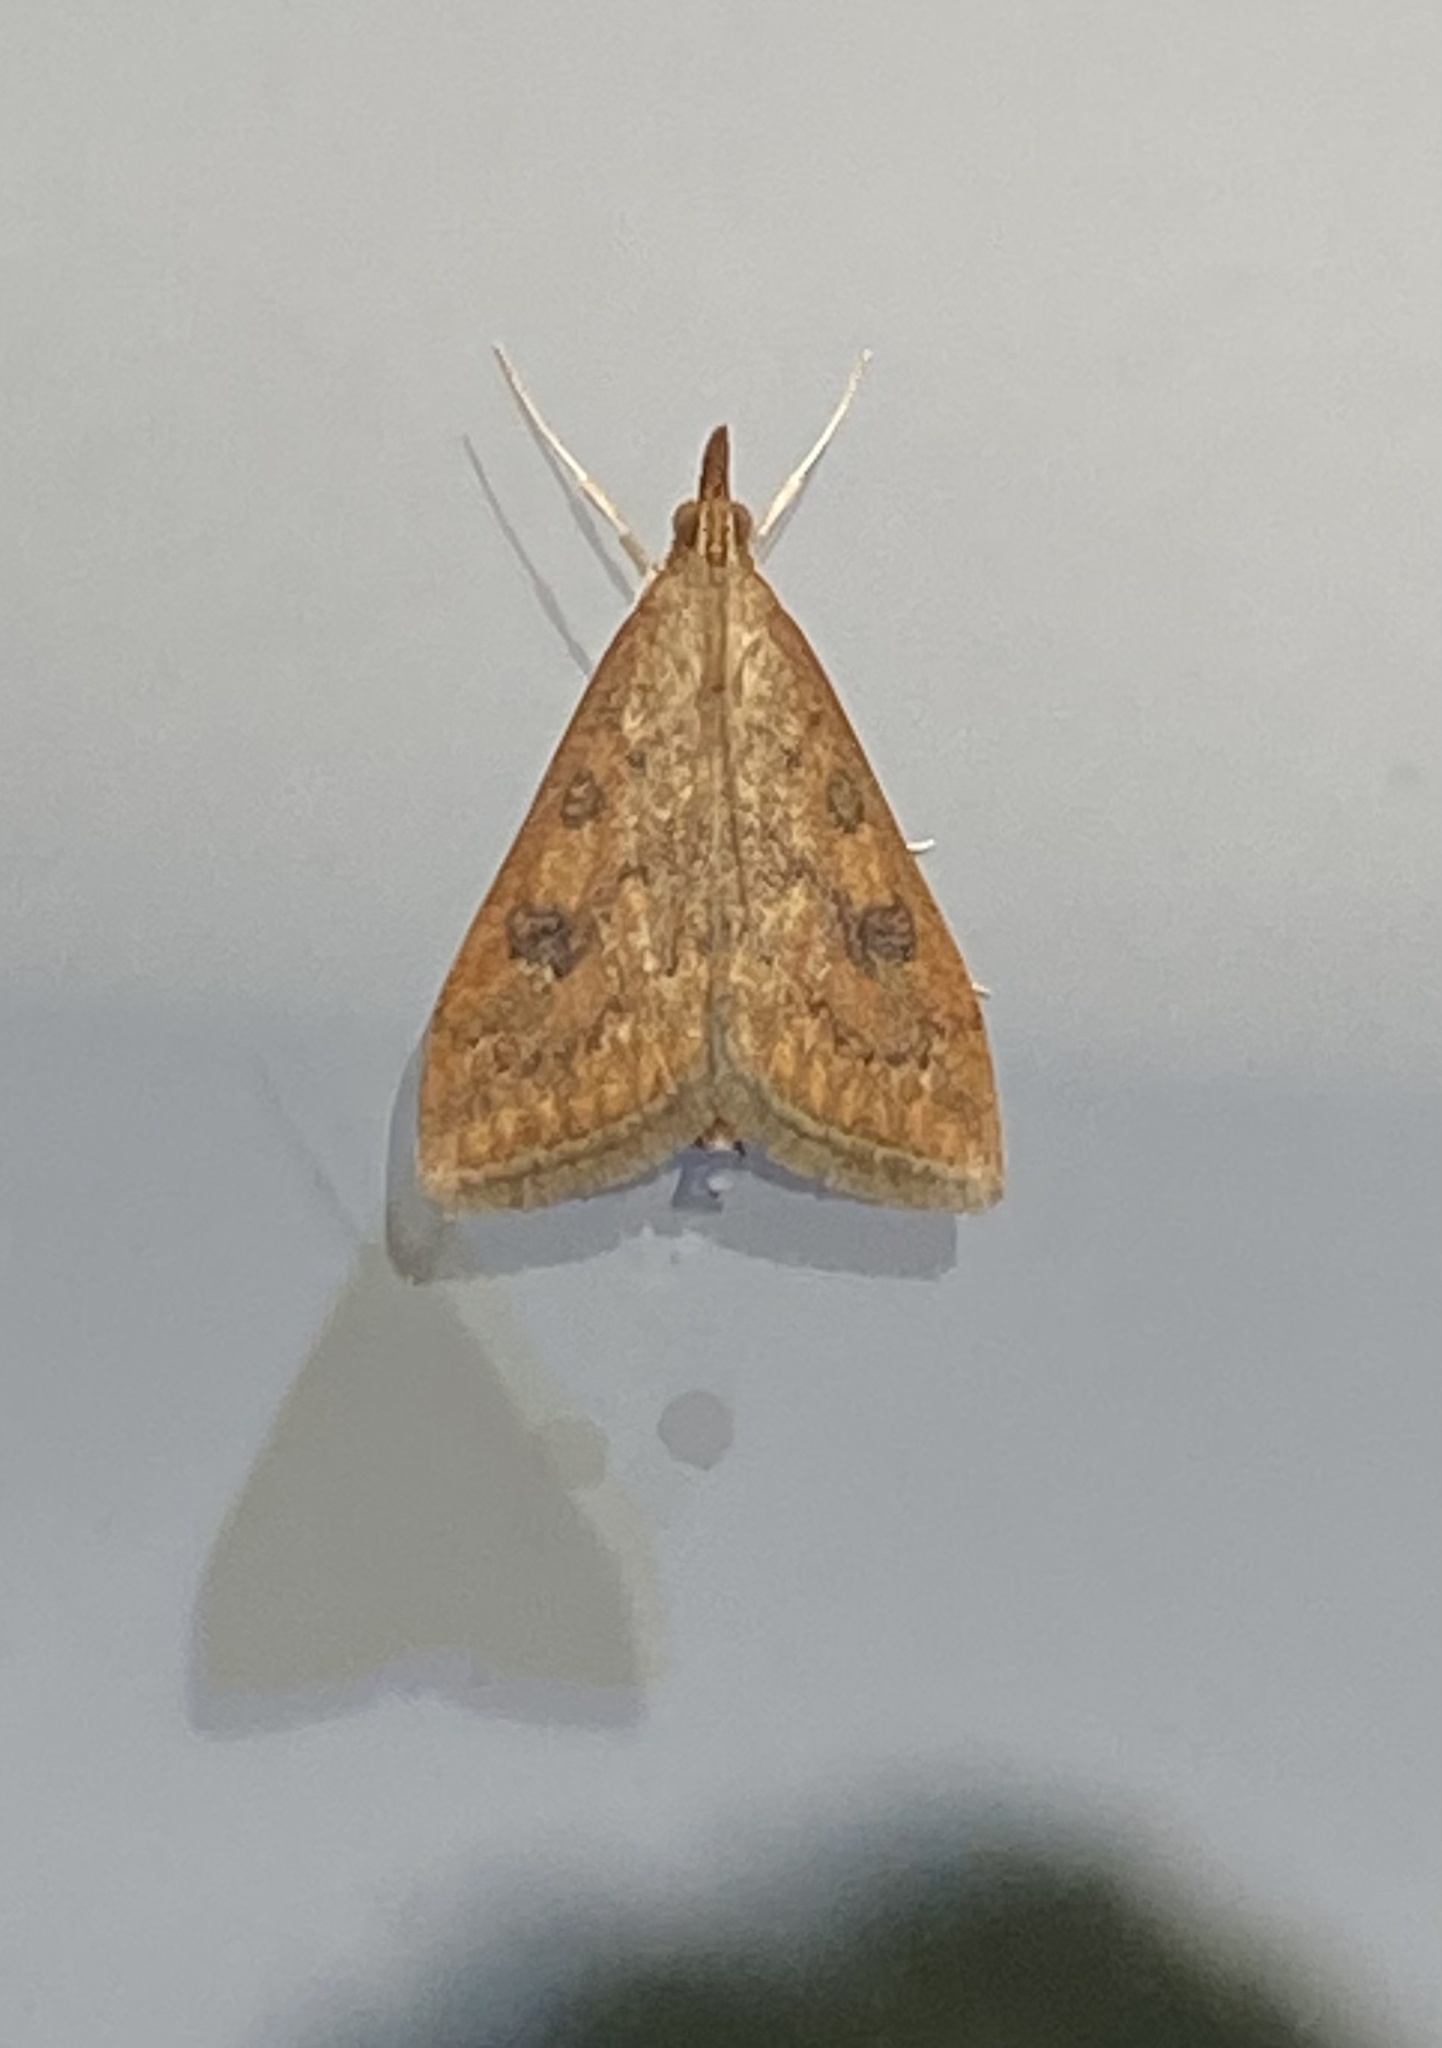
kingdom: Animalia
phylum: Arthropoda
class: Insecta
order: Lepidoptera
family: Crambidae
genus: Udea
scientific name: Udea ferrugalis
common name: Rusty dot
